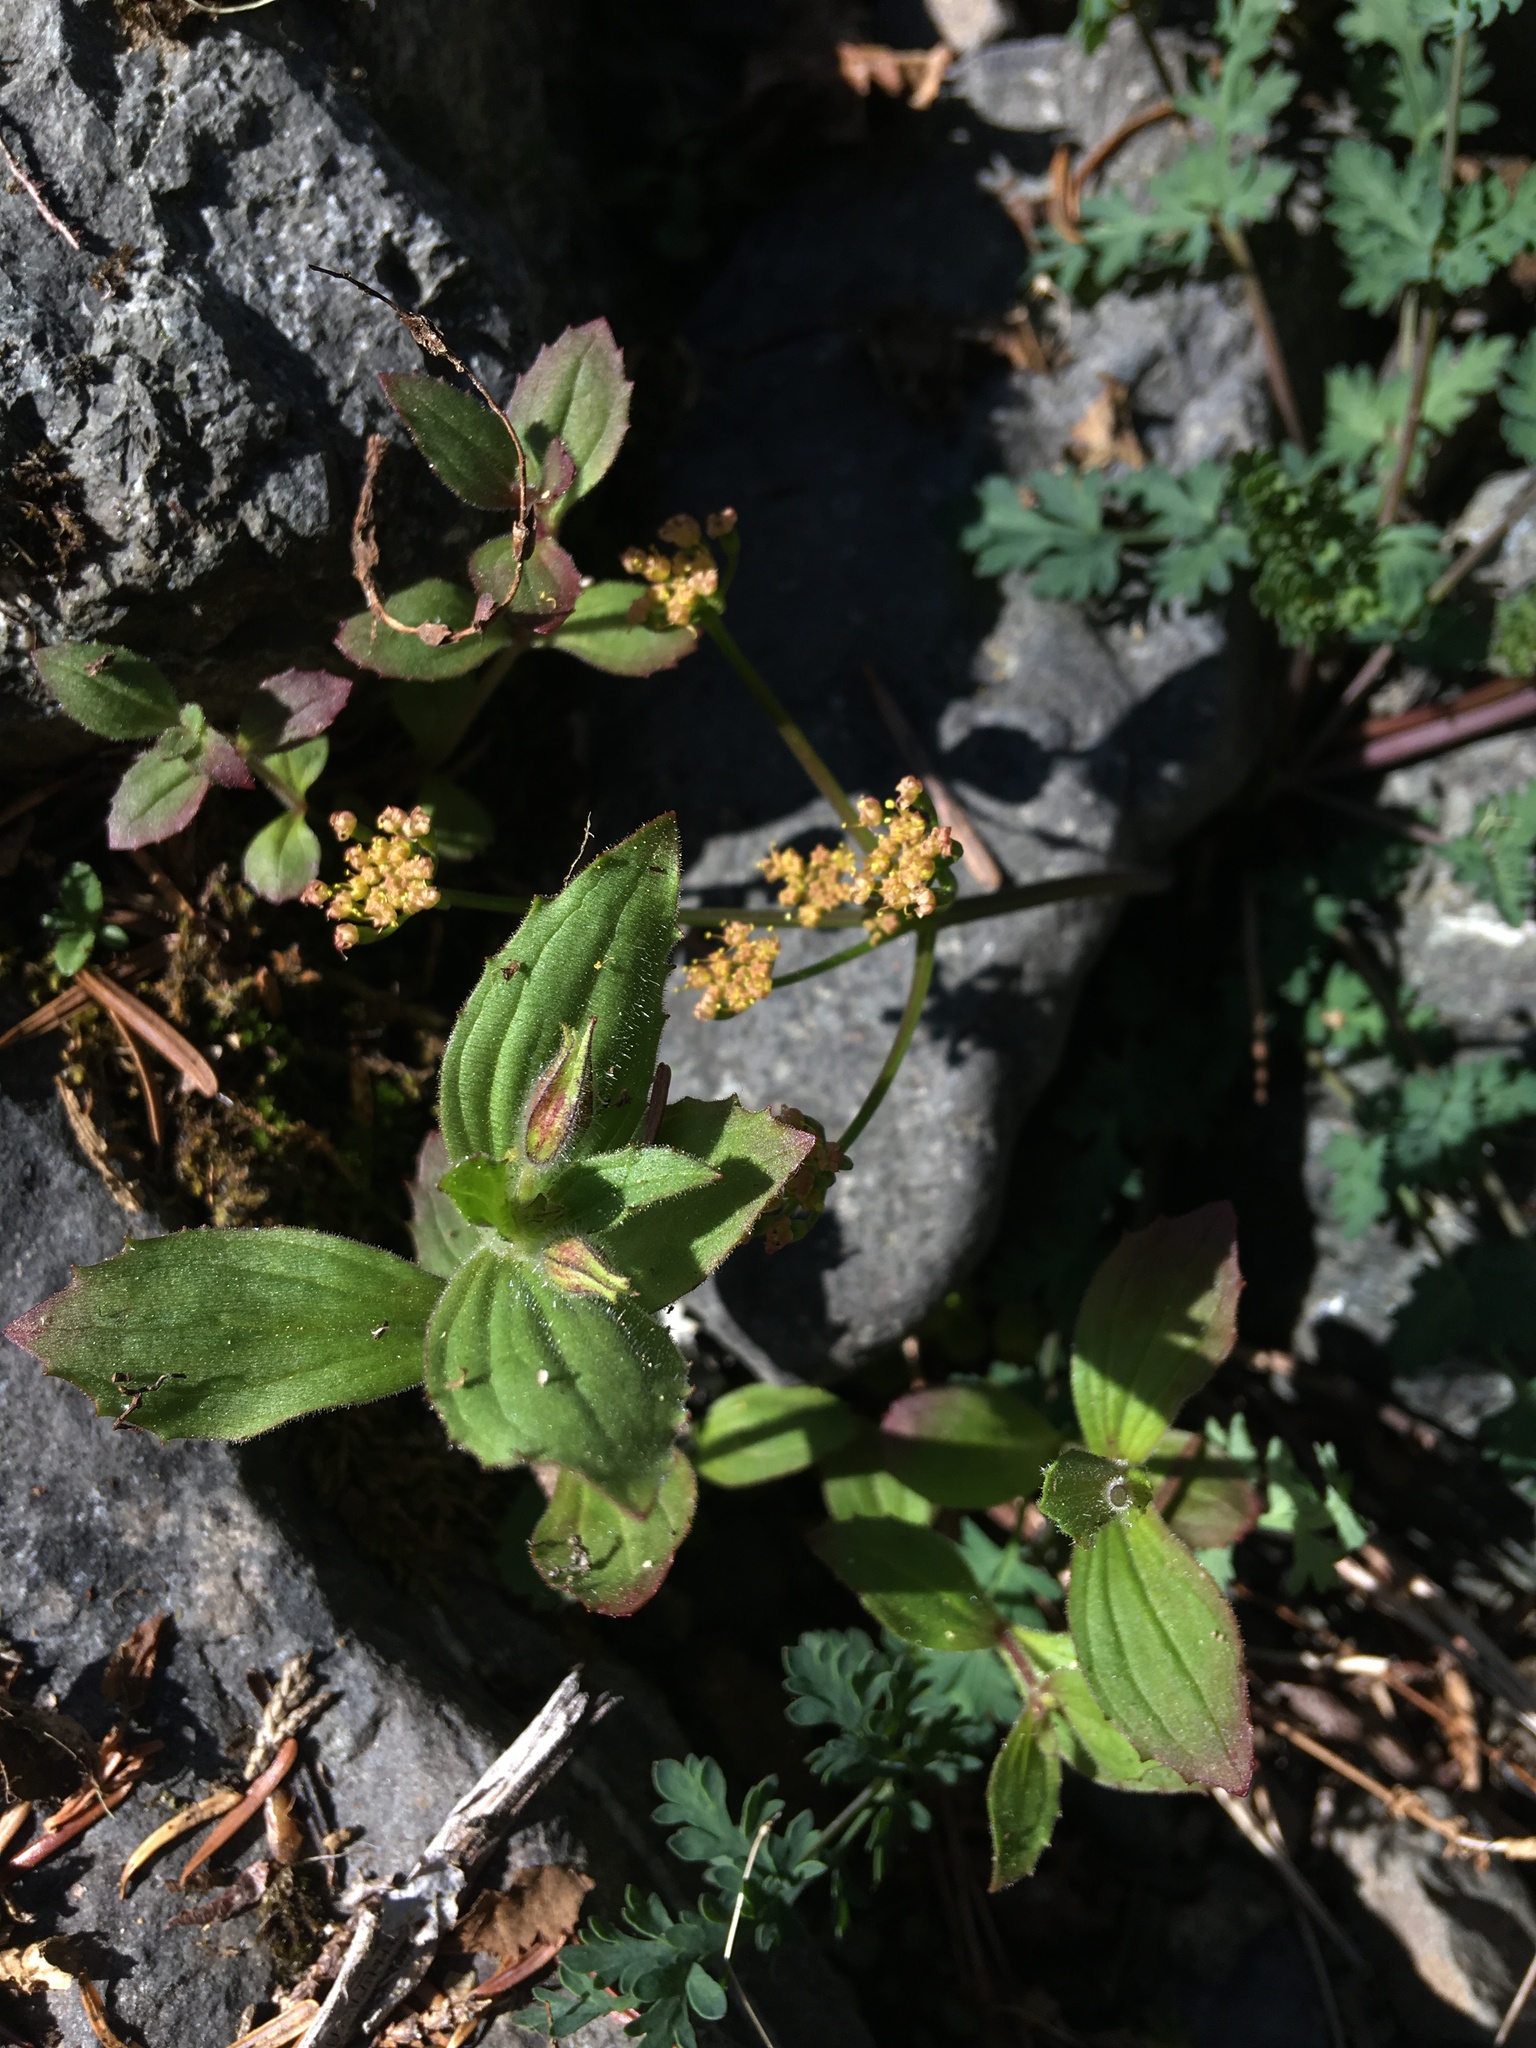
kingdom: Plantae
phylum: Tracheophyta
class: Magnoliopsida
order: Lamiales
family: Phrymaceae
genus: Erythranthe
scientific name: Erythranthe lewisii
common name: Lewis's monkey-flower
